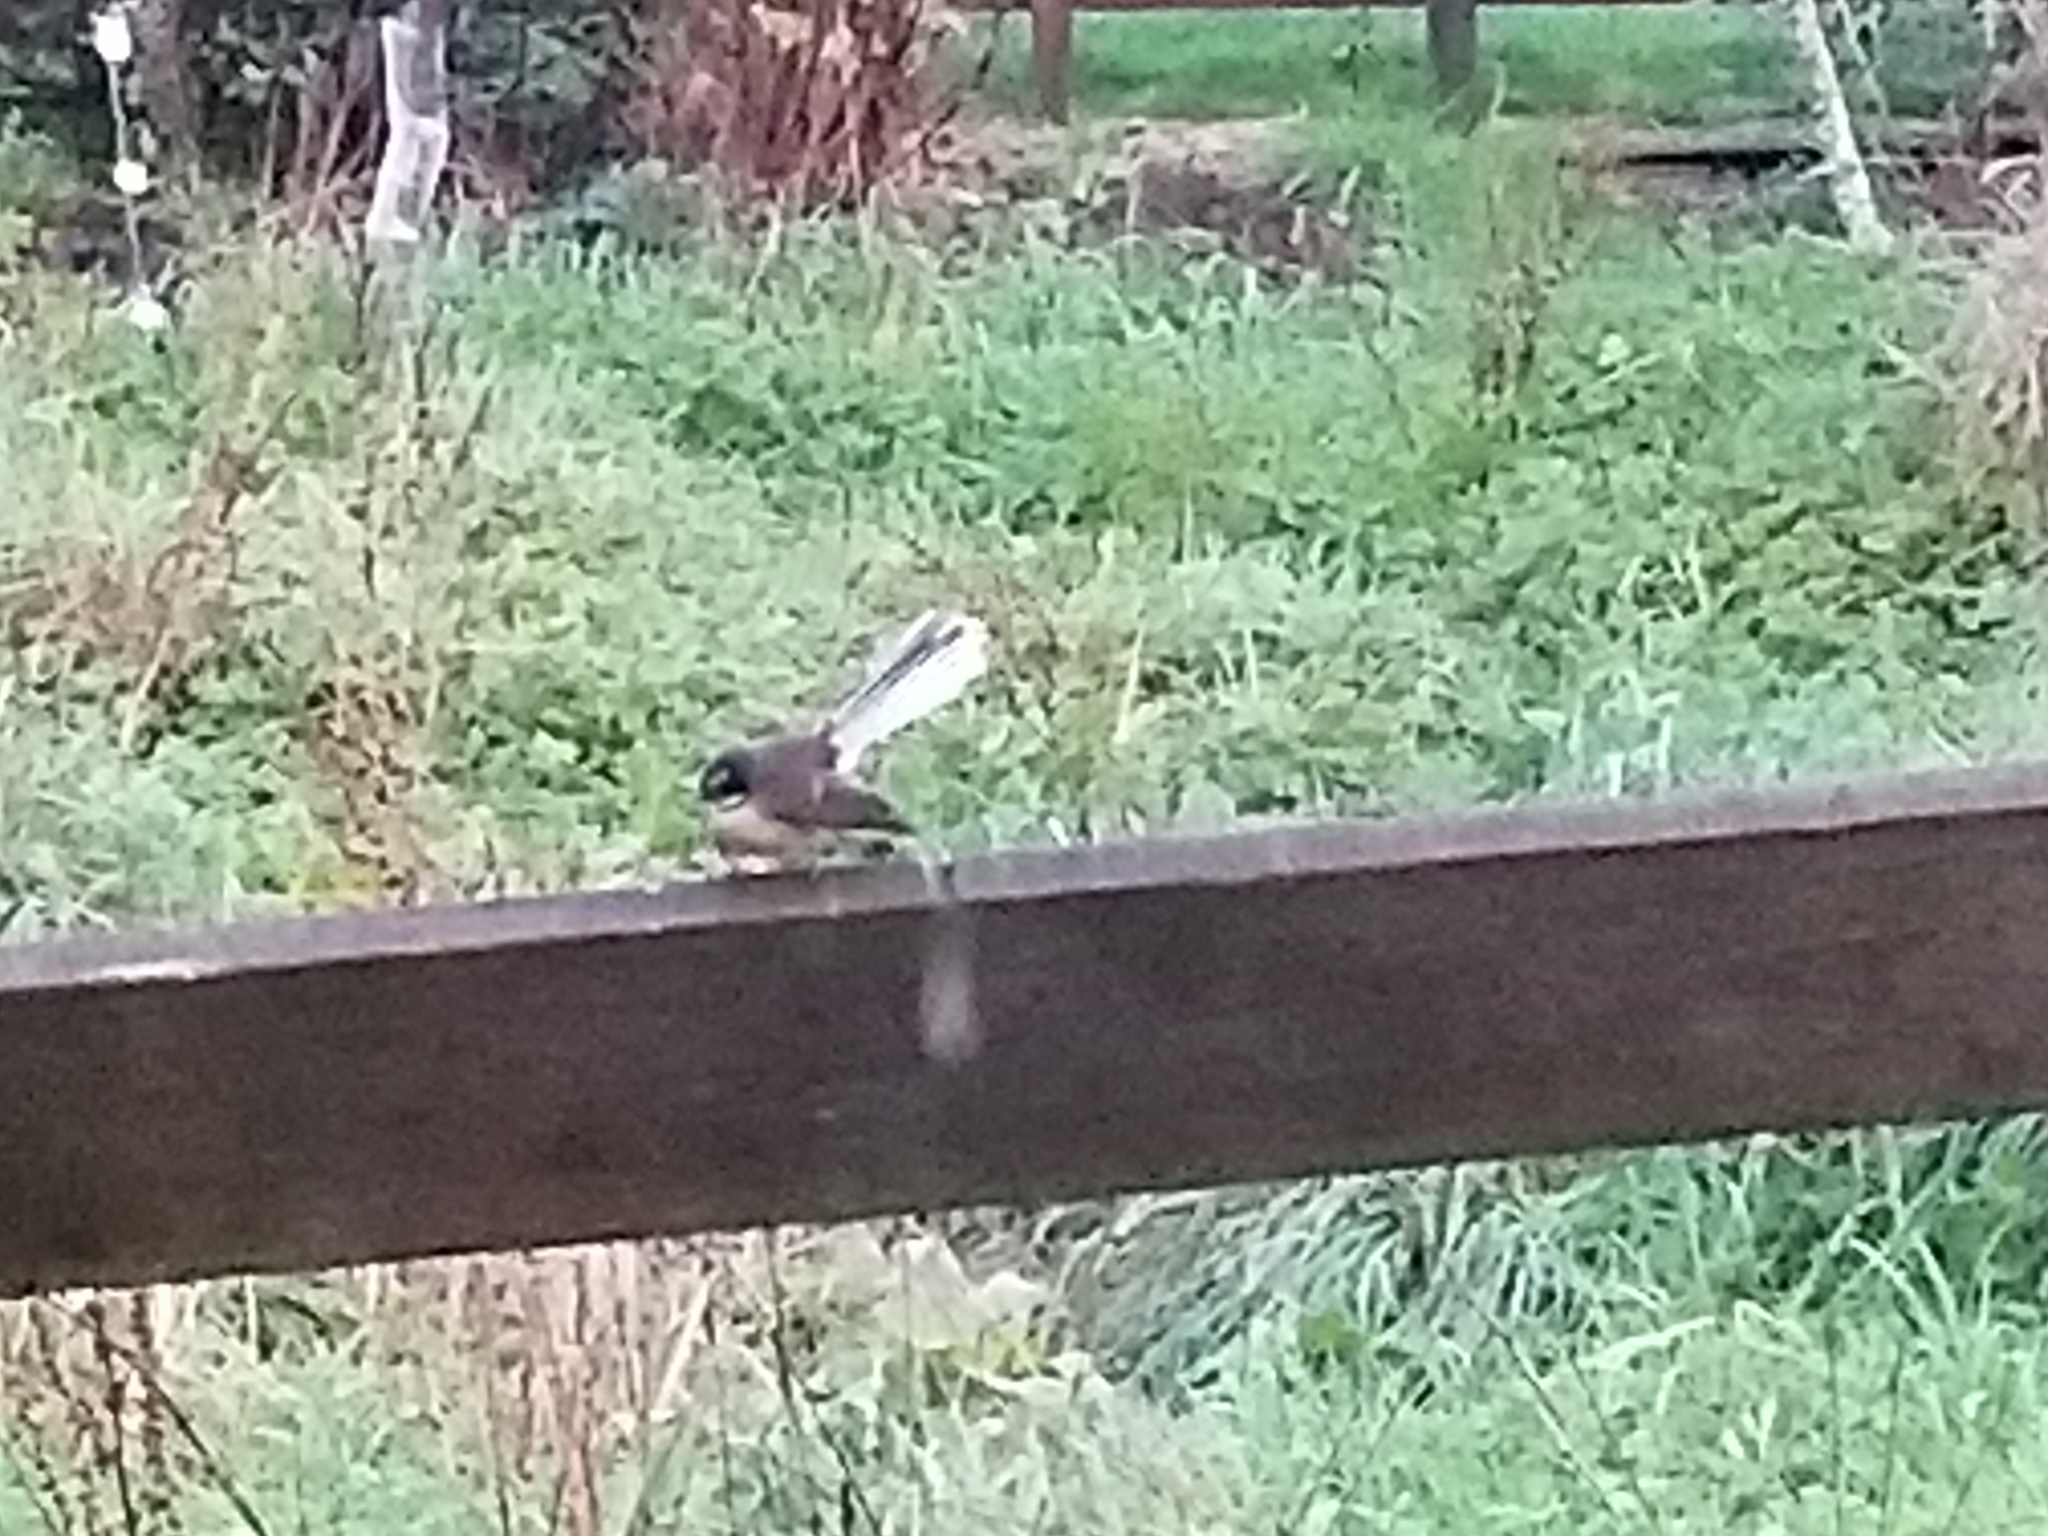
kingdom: Animalia
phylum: Chordata
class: Aves
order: Passeriformes
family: Rhipiduridae
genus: Rhipidura
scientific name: Rhipidura fuliginosa
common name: New zealand fantail
